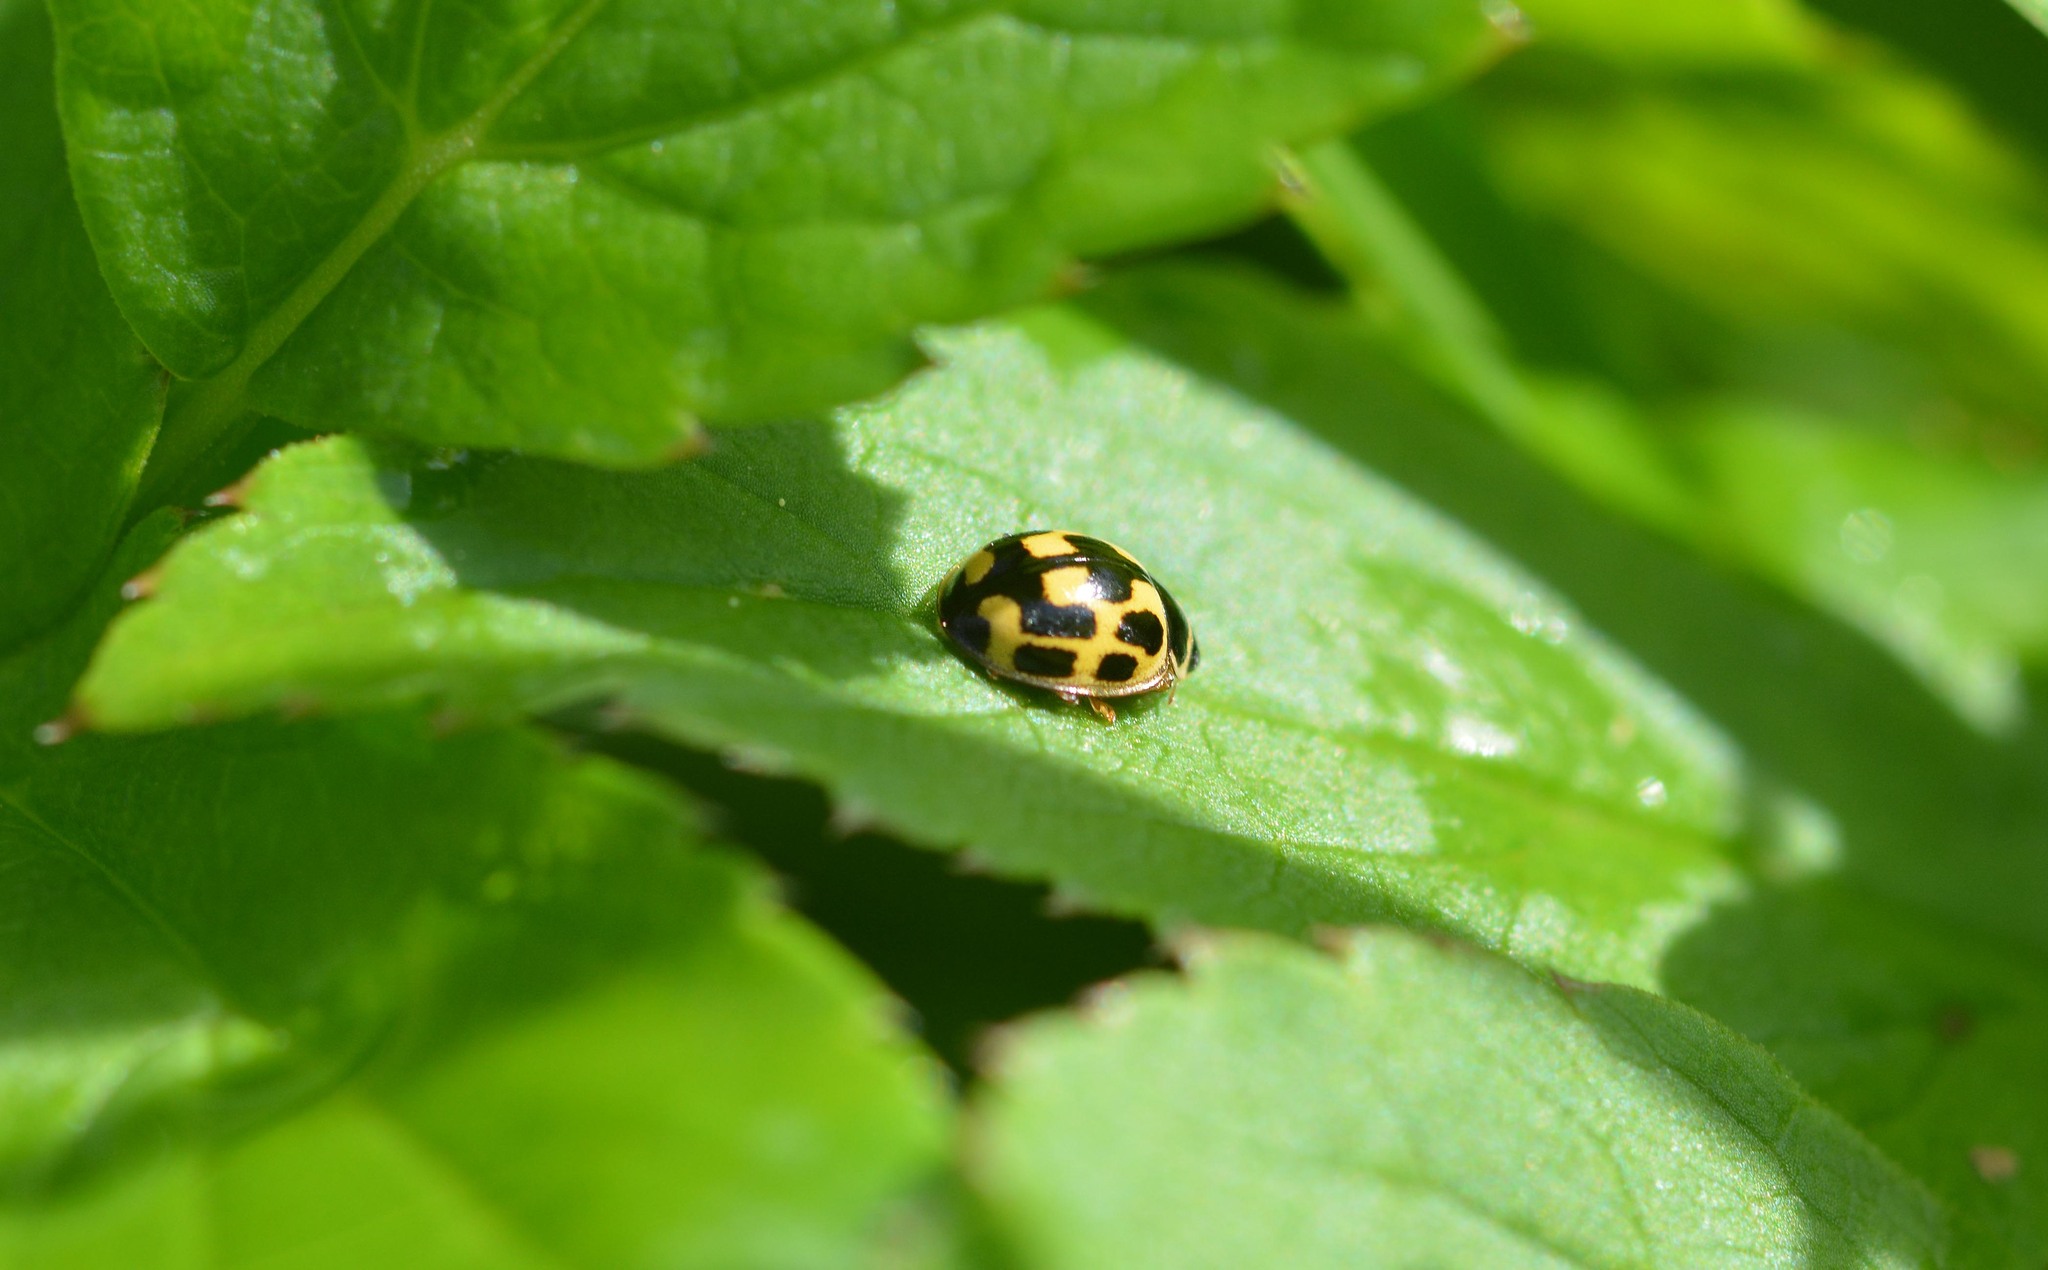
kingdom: Animalia
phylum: Arthropoda
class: Insecta
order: Coleoptera
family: Coccinellidae
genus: Propylaea
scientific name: Propylaea quatuordecimpunctata
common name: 14-spotted ladybird beetle
